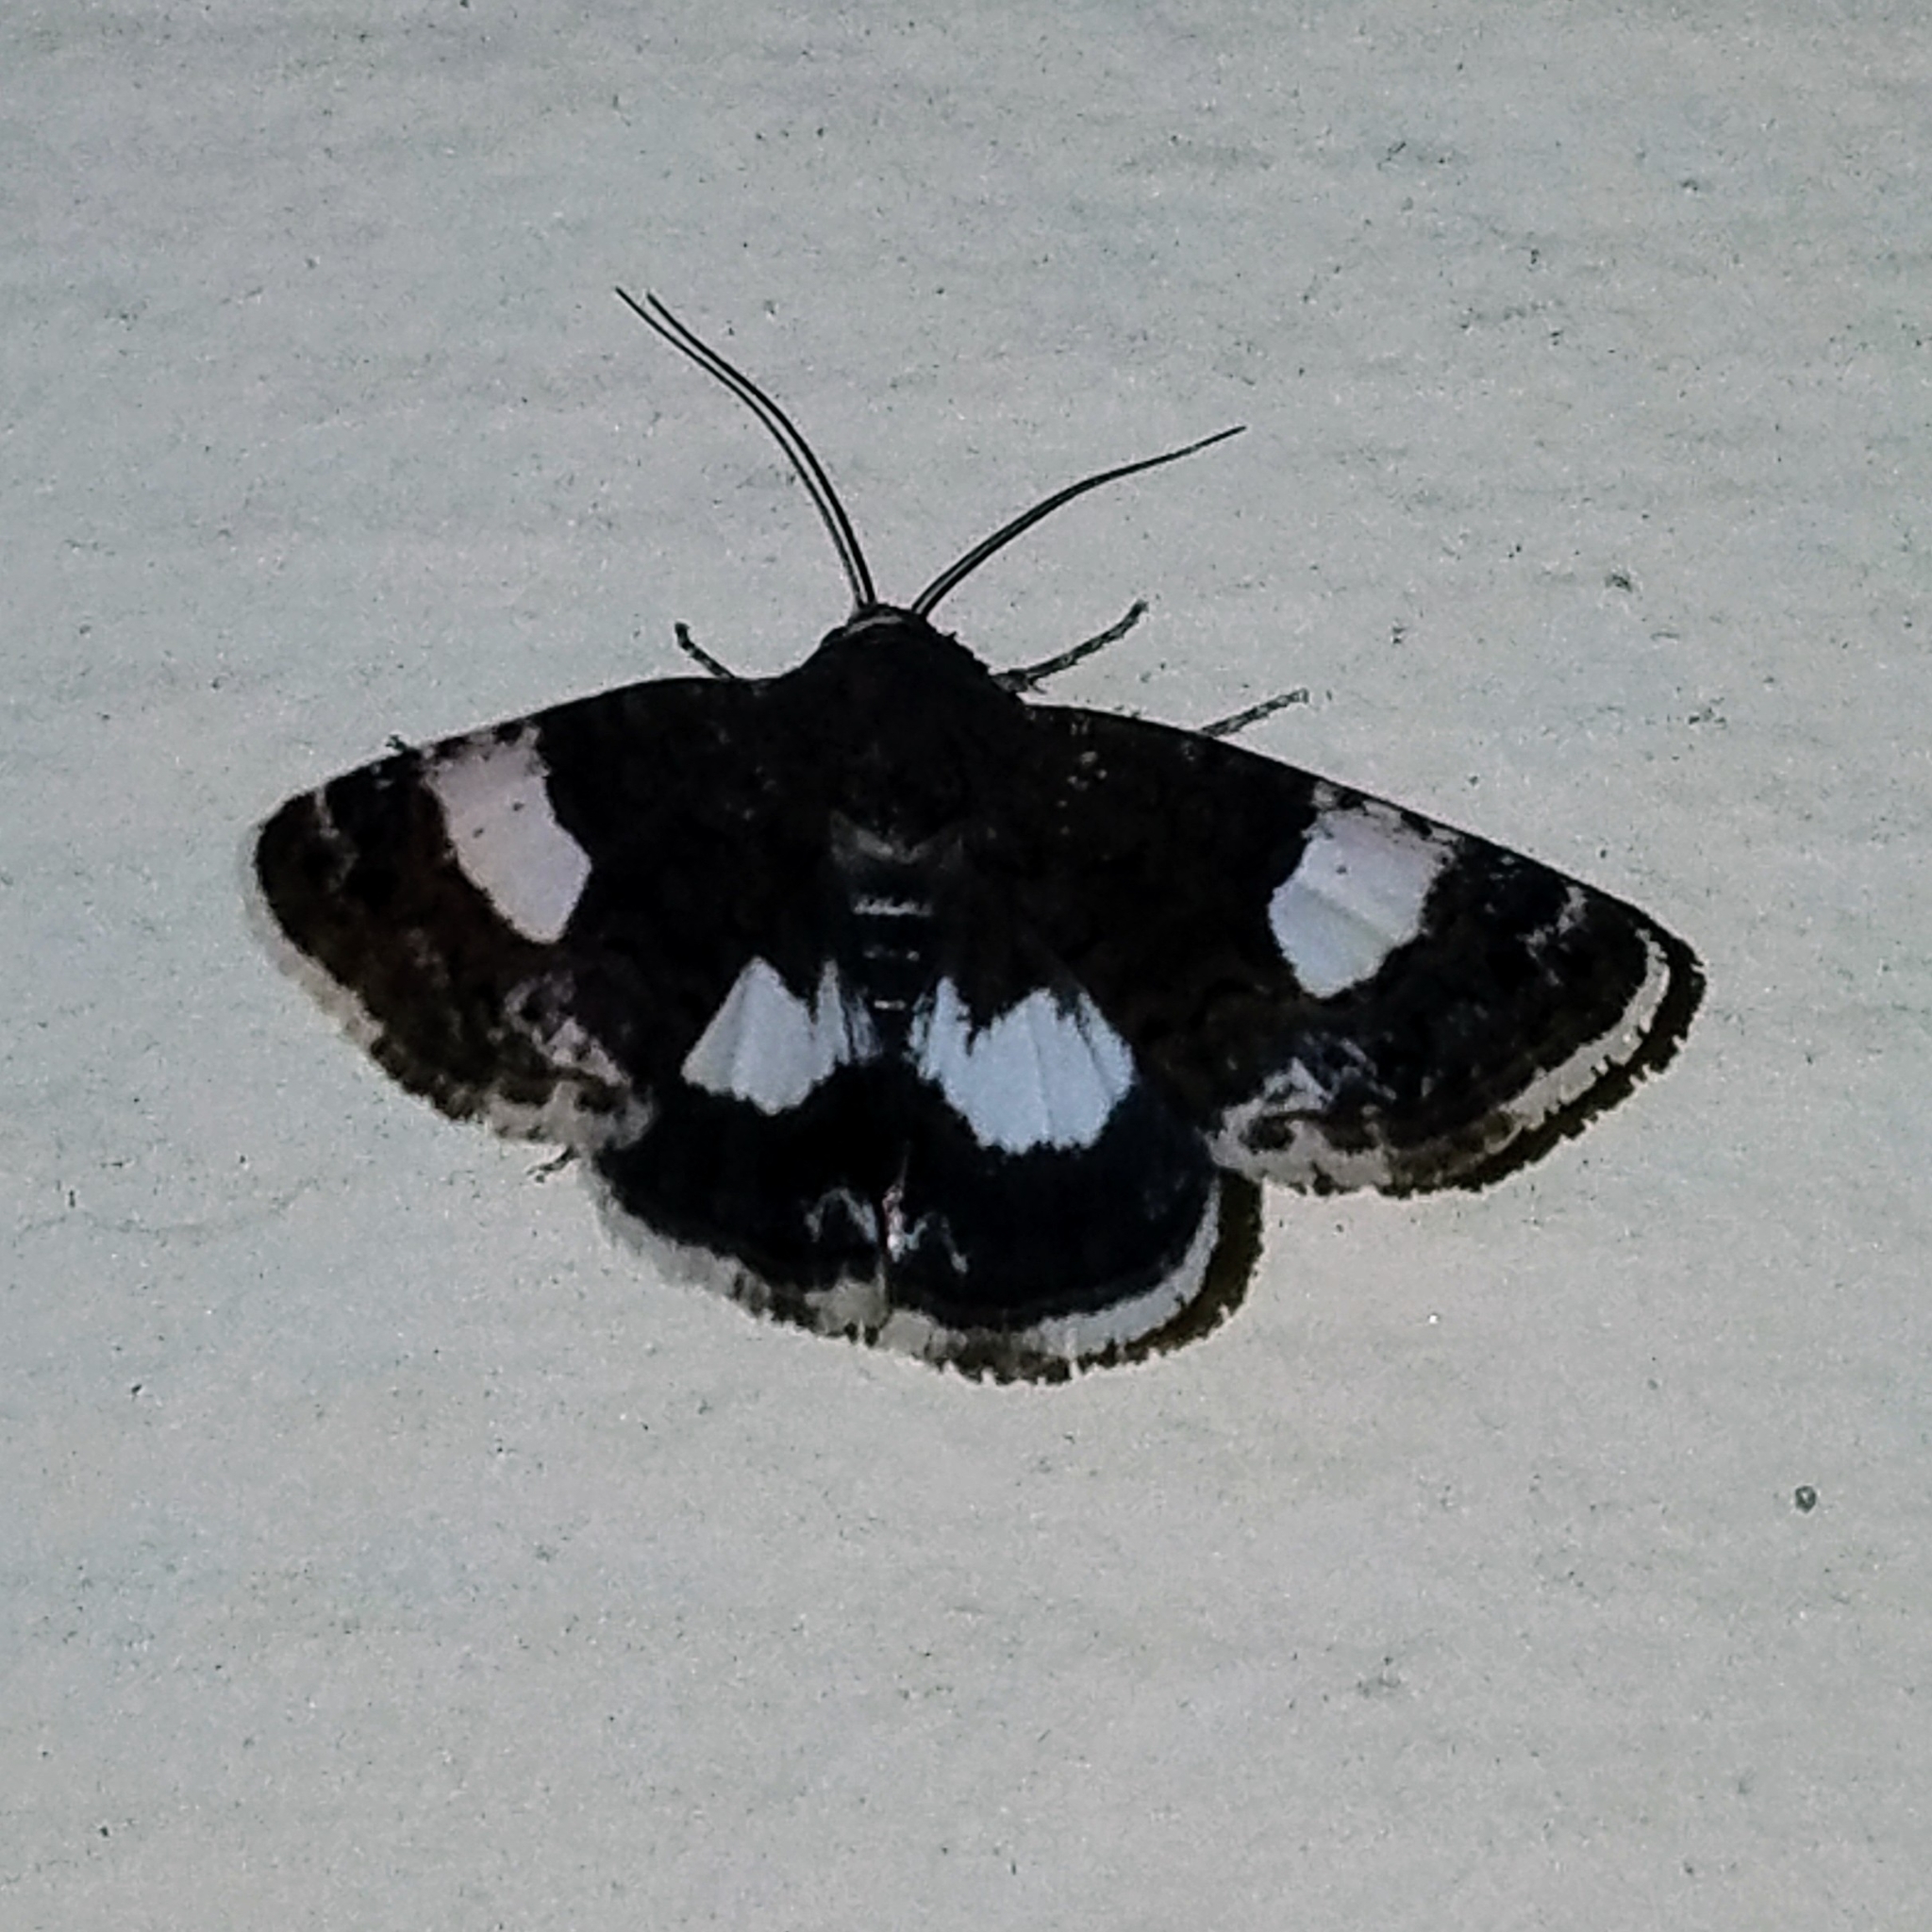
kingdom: Animalia
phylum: Arthropoda
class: Insecta
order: Lepidoptera
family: Erebidae
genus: Tyta
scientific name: Tyta luctuosa
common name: Four-spotted
